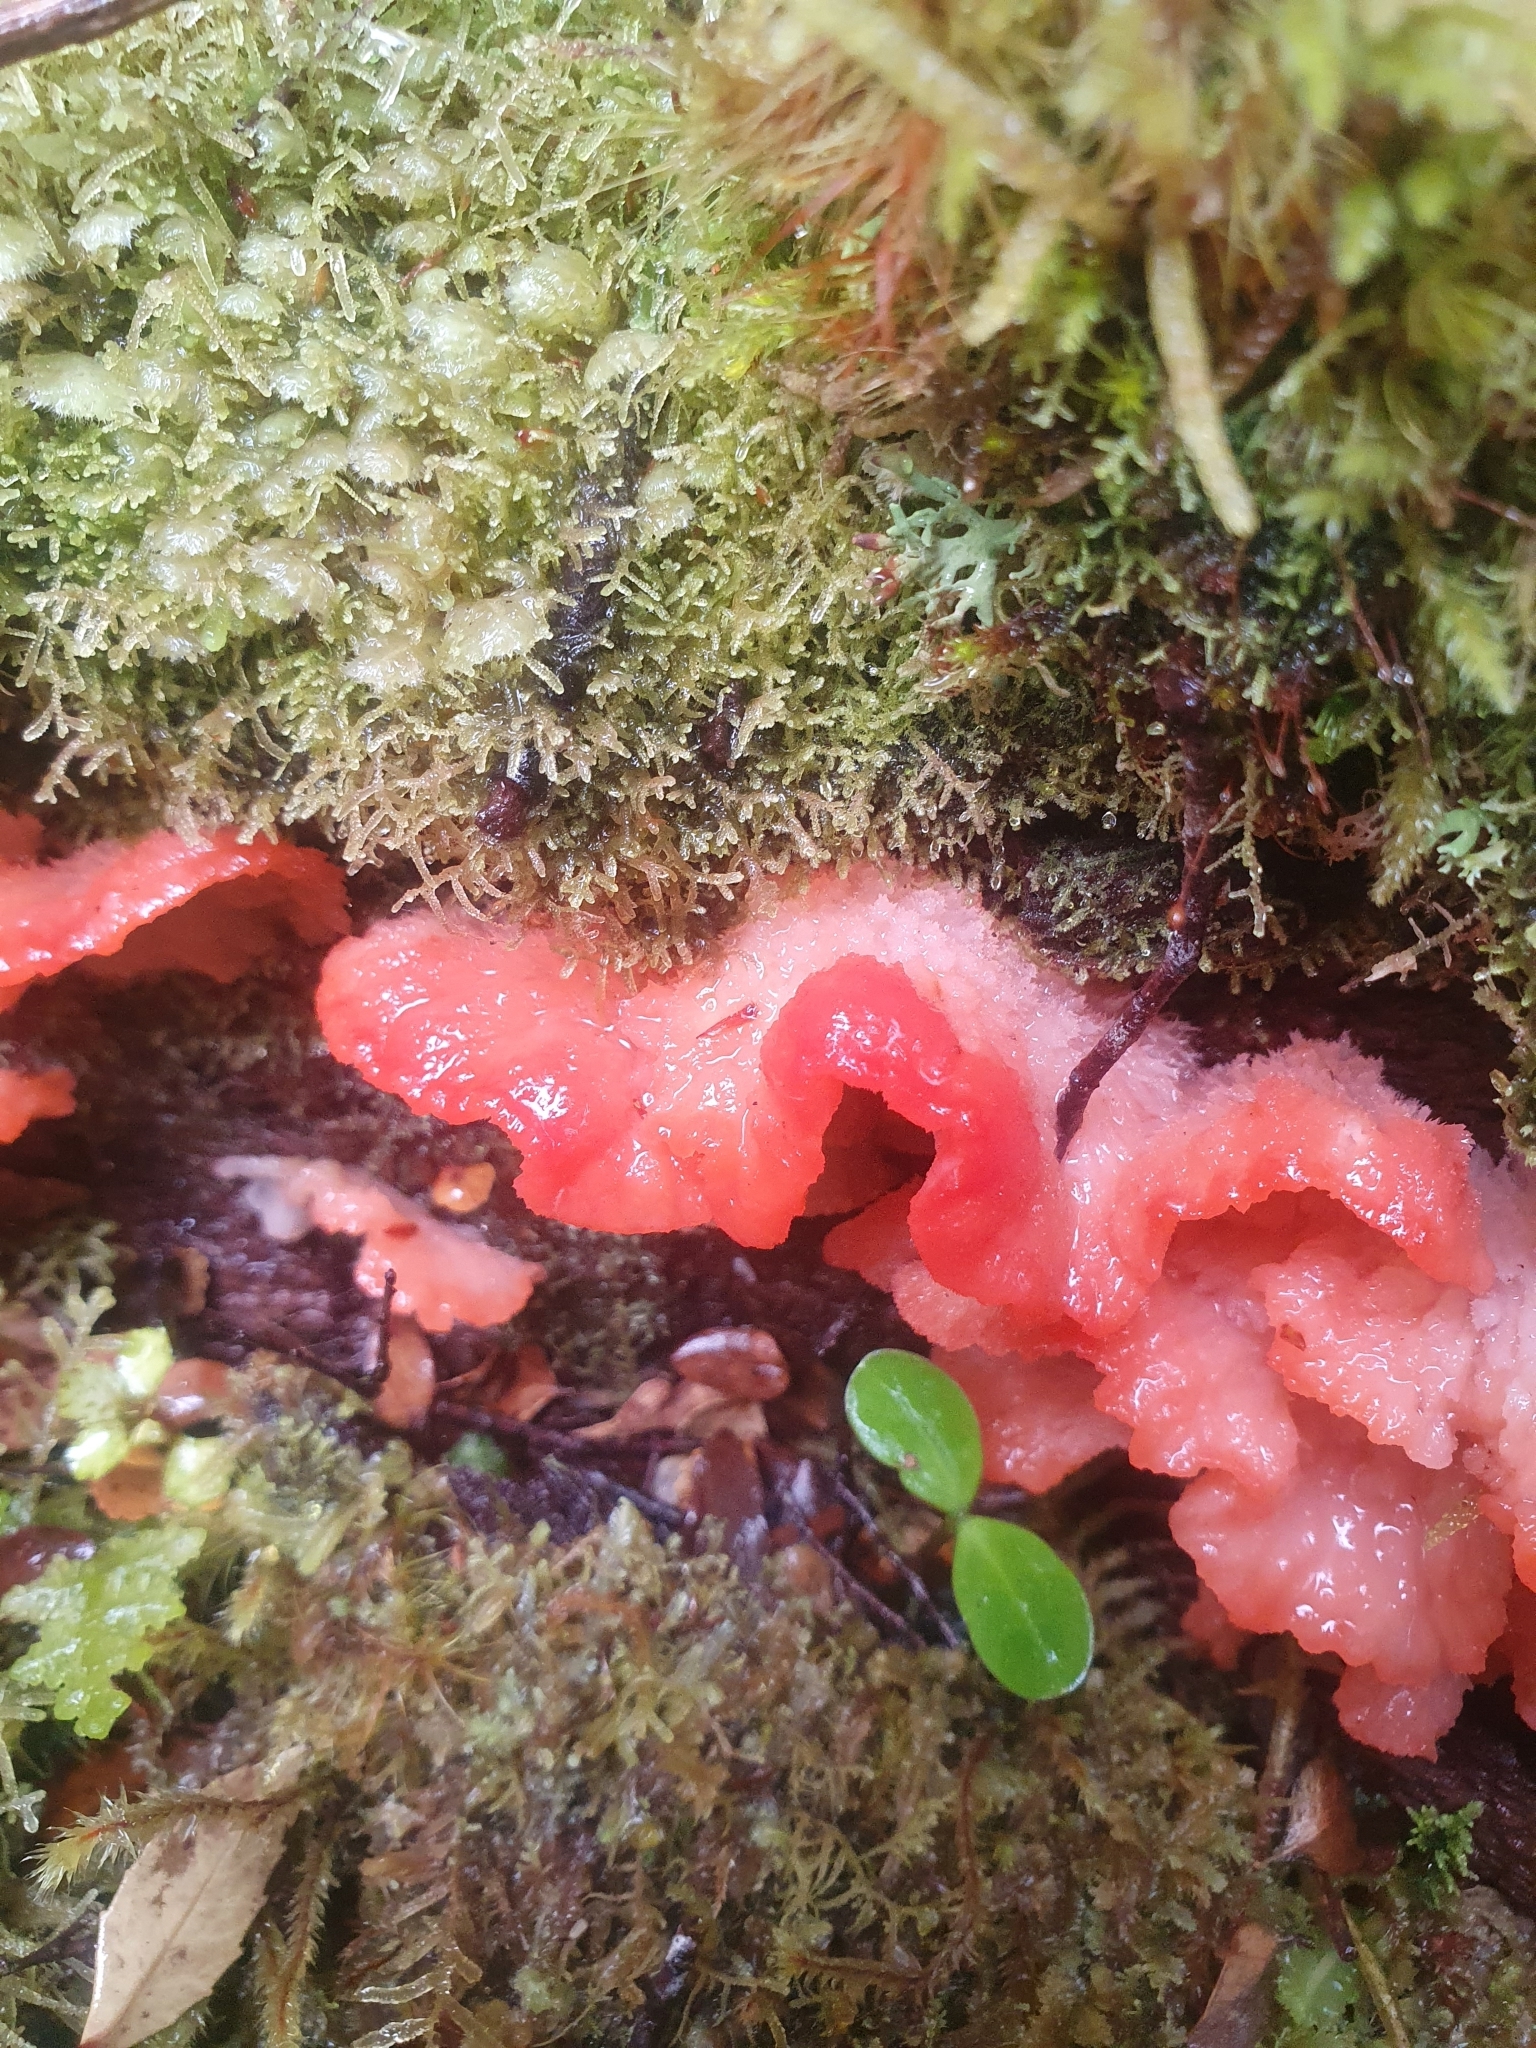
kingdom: Fungi
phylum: Basidiomycota
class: Agaricomycetes
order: Polyporales
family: Incrustoporiaceae
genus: Tyromyces
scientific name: Tyromyces pulcherrimus
